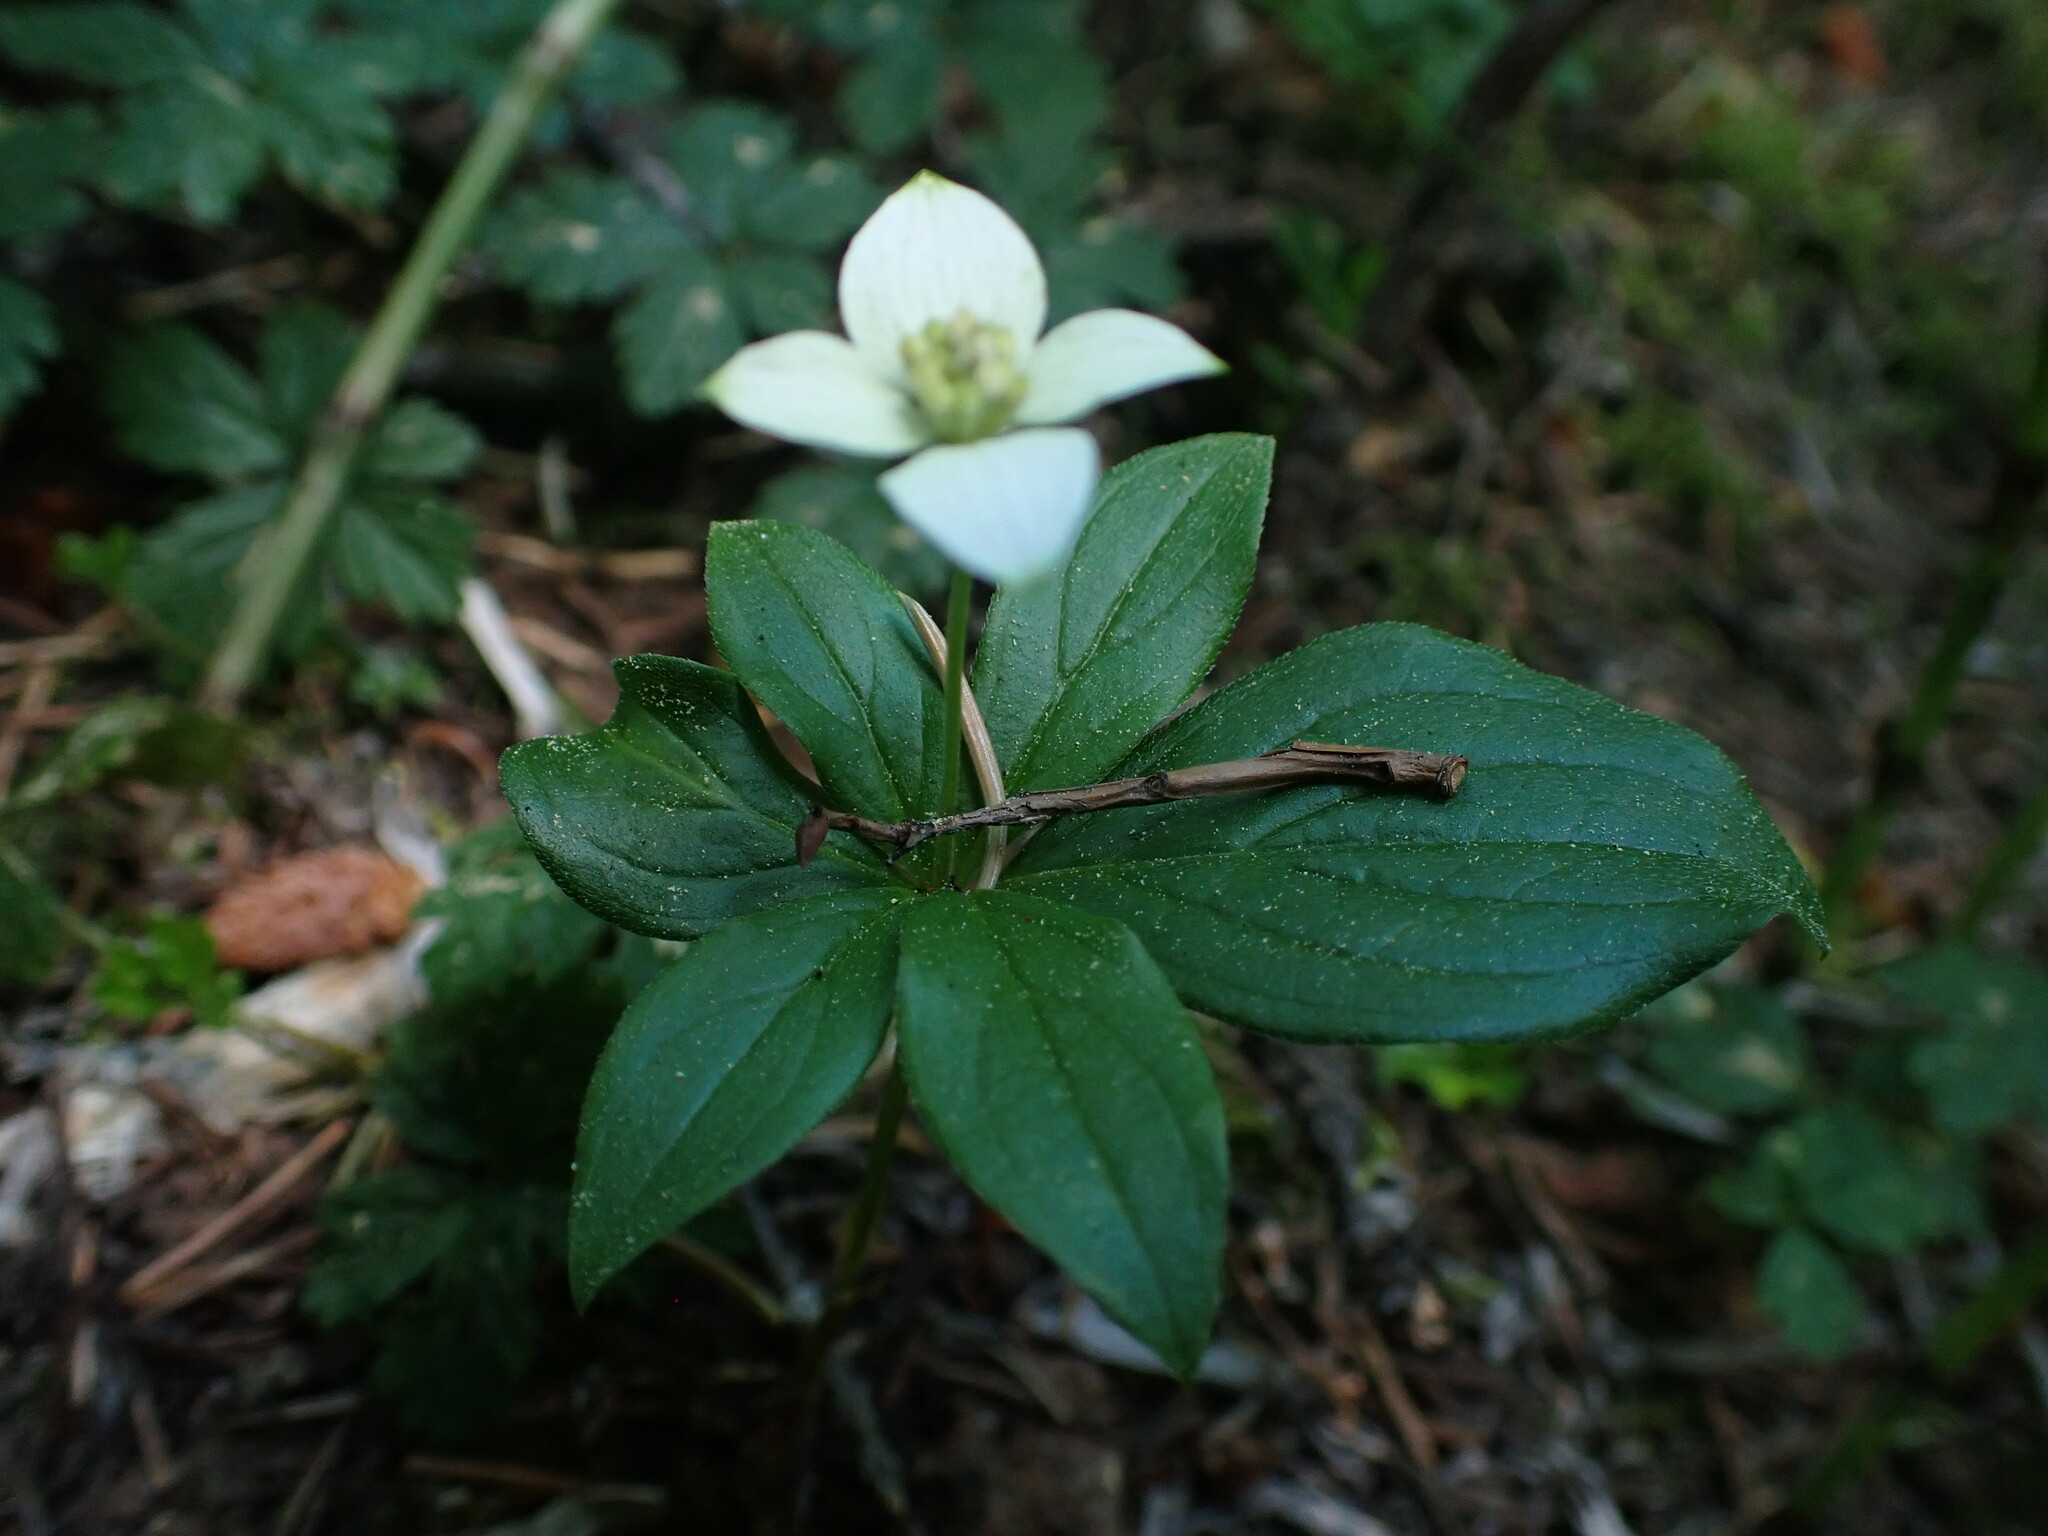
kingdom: Plantae
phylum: Tracheophyta
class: Magnoliopsida
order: Cornales
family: Cornaceae
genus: Cornus
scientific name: Cornus canadensis
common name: Creeping dogwood
